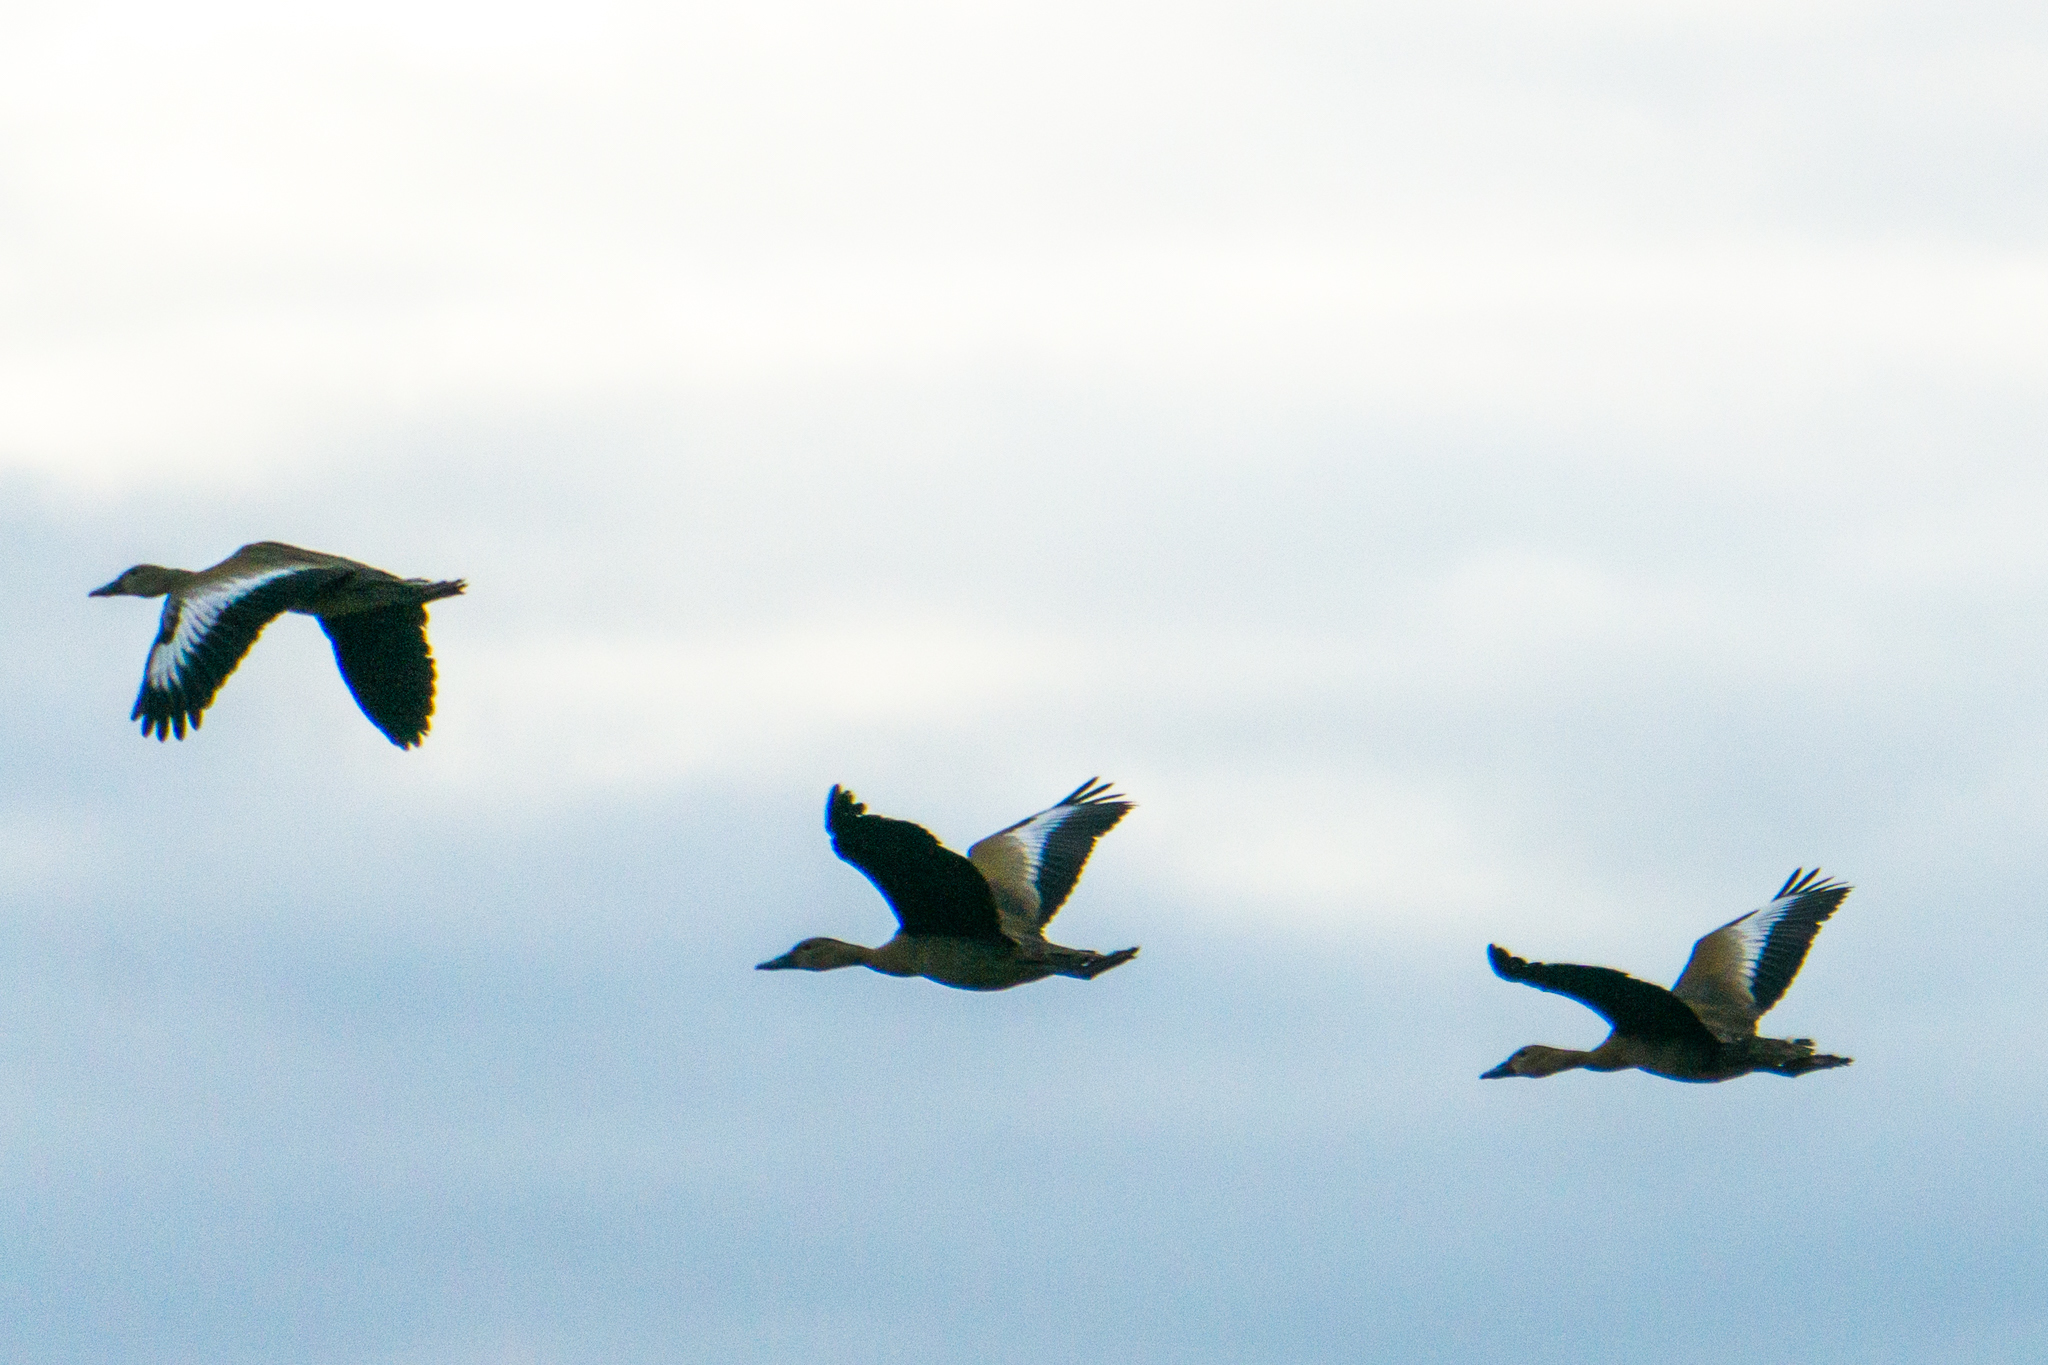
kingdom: Animalia
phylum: Chordata
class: Aves
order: Anseriformes
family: Anatidae
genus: Dendrocygna
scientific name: Dendrocygna autumnalis
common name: Black-bellied whistling duck
